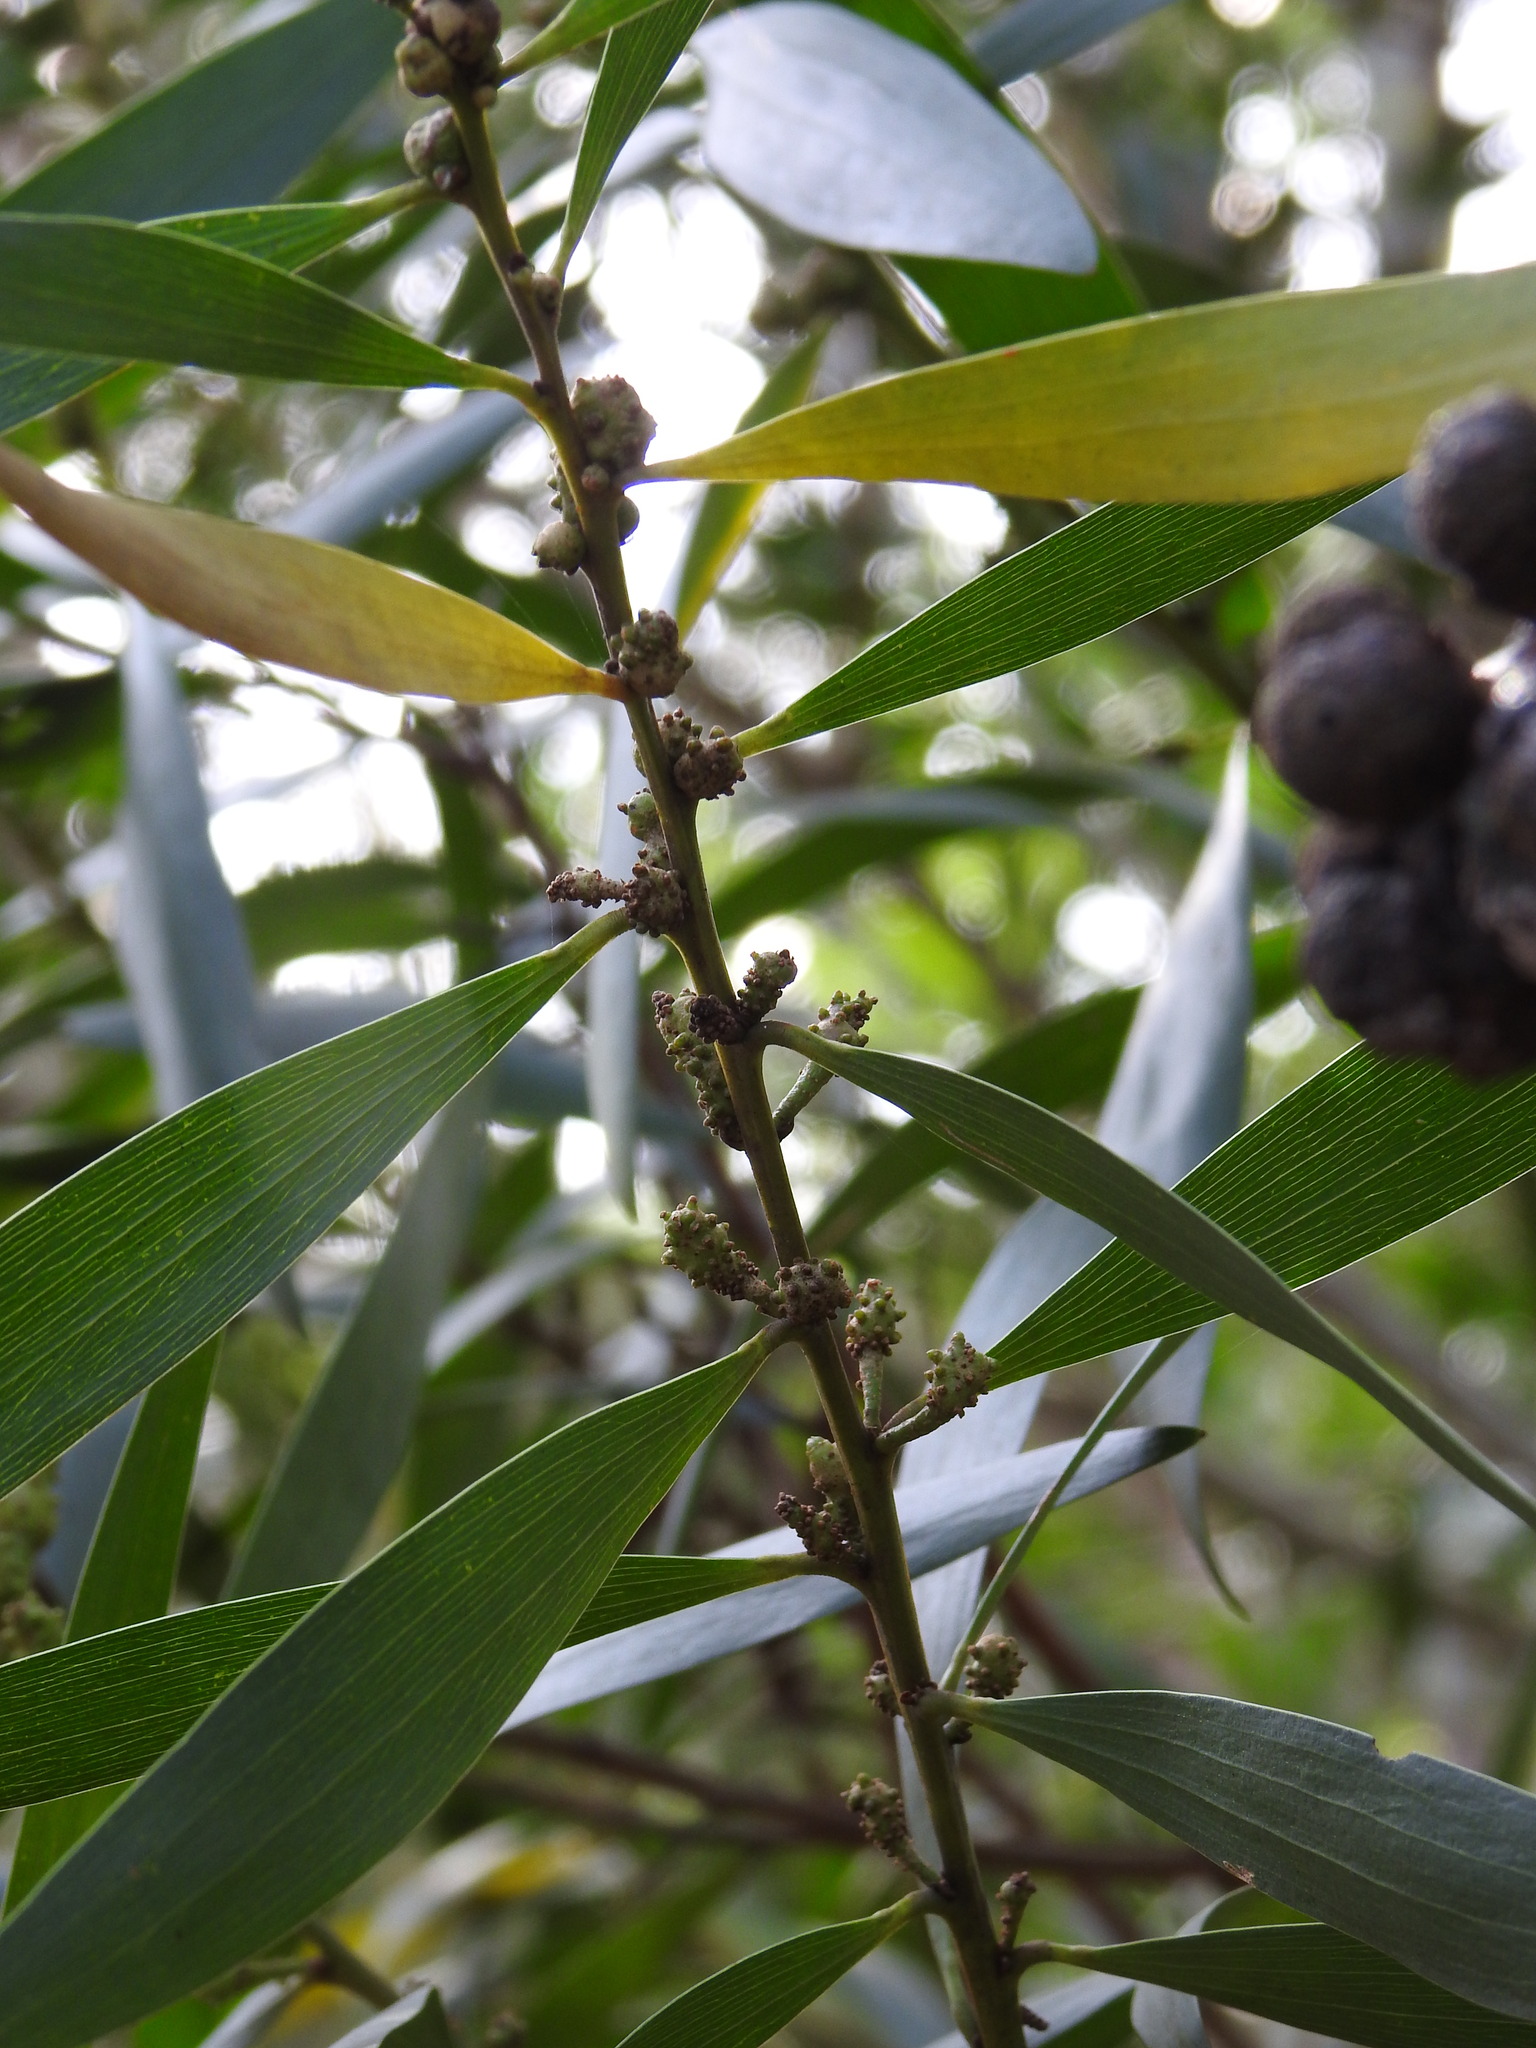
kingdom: Plantae
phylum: Tracheophyta
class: Magnoliopsida
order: Fabales
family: Fabaceae
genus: Acacia
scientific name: Acacia longifolia
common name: Sydney golden wattle
